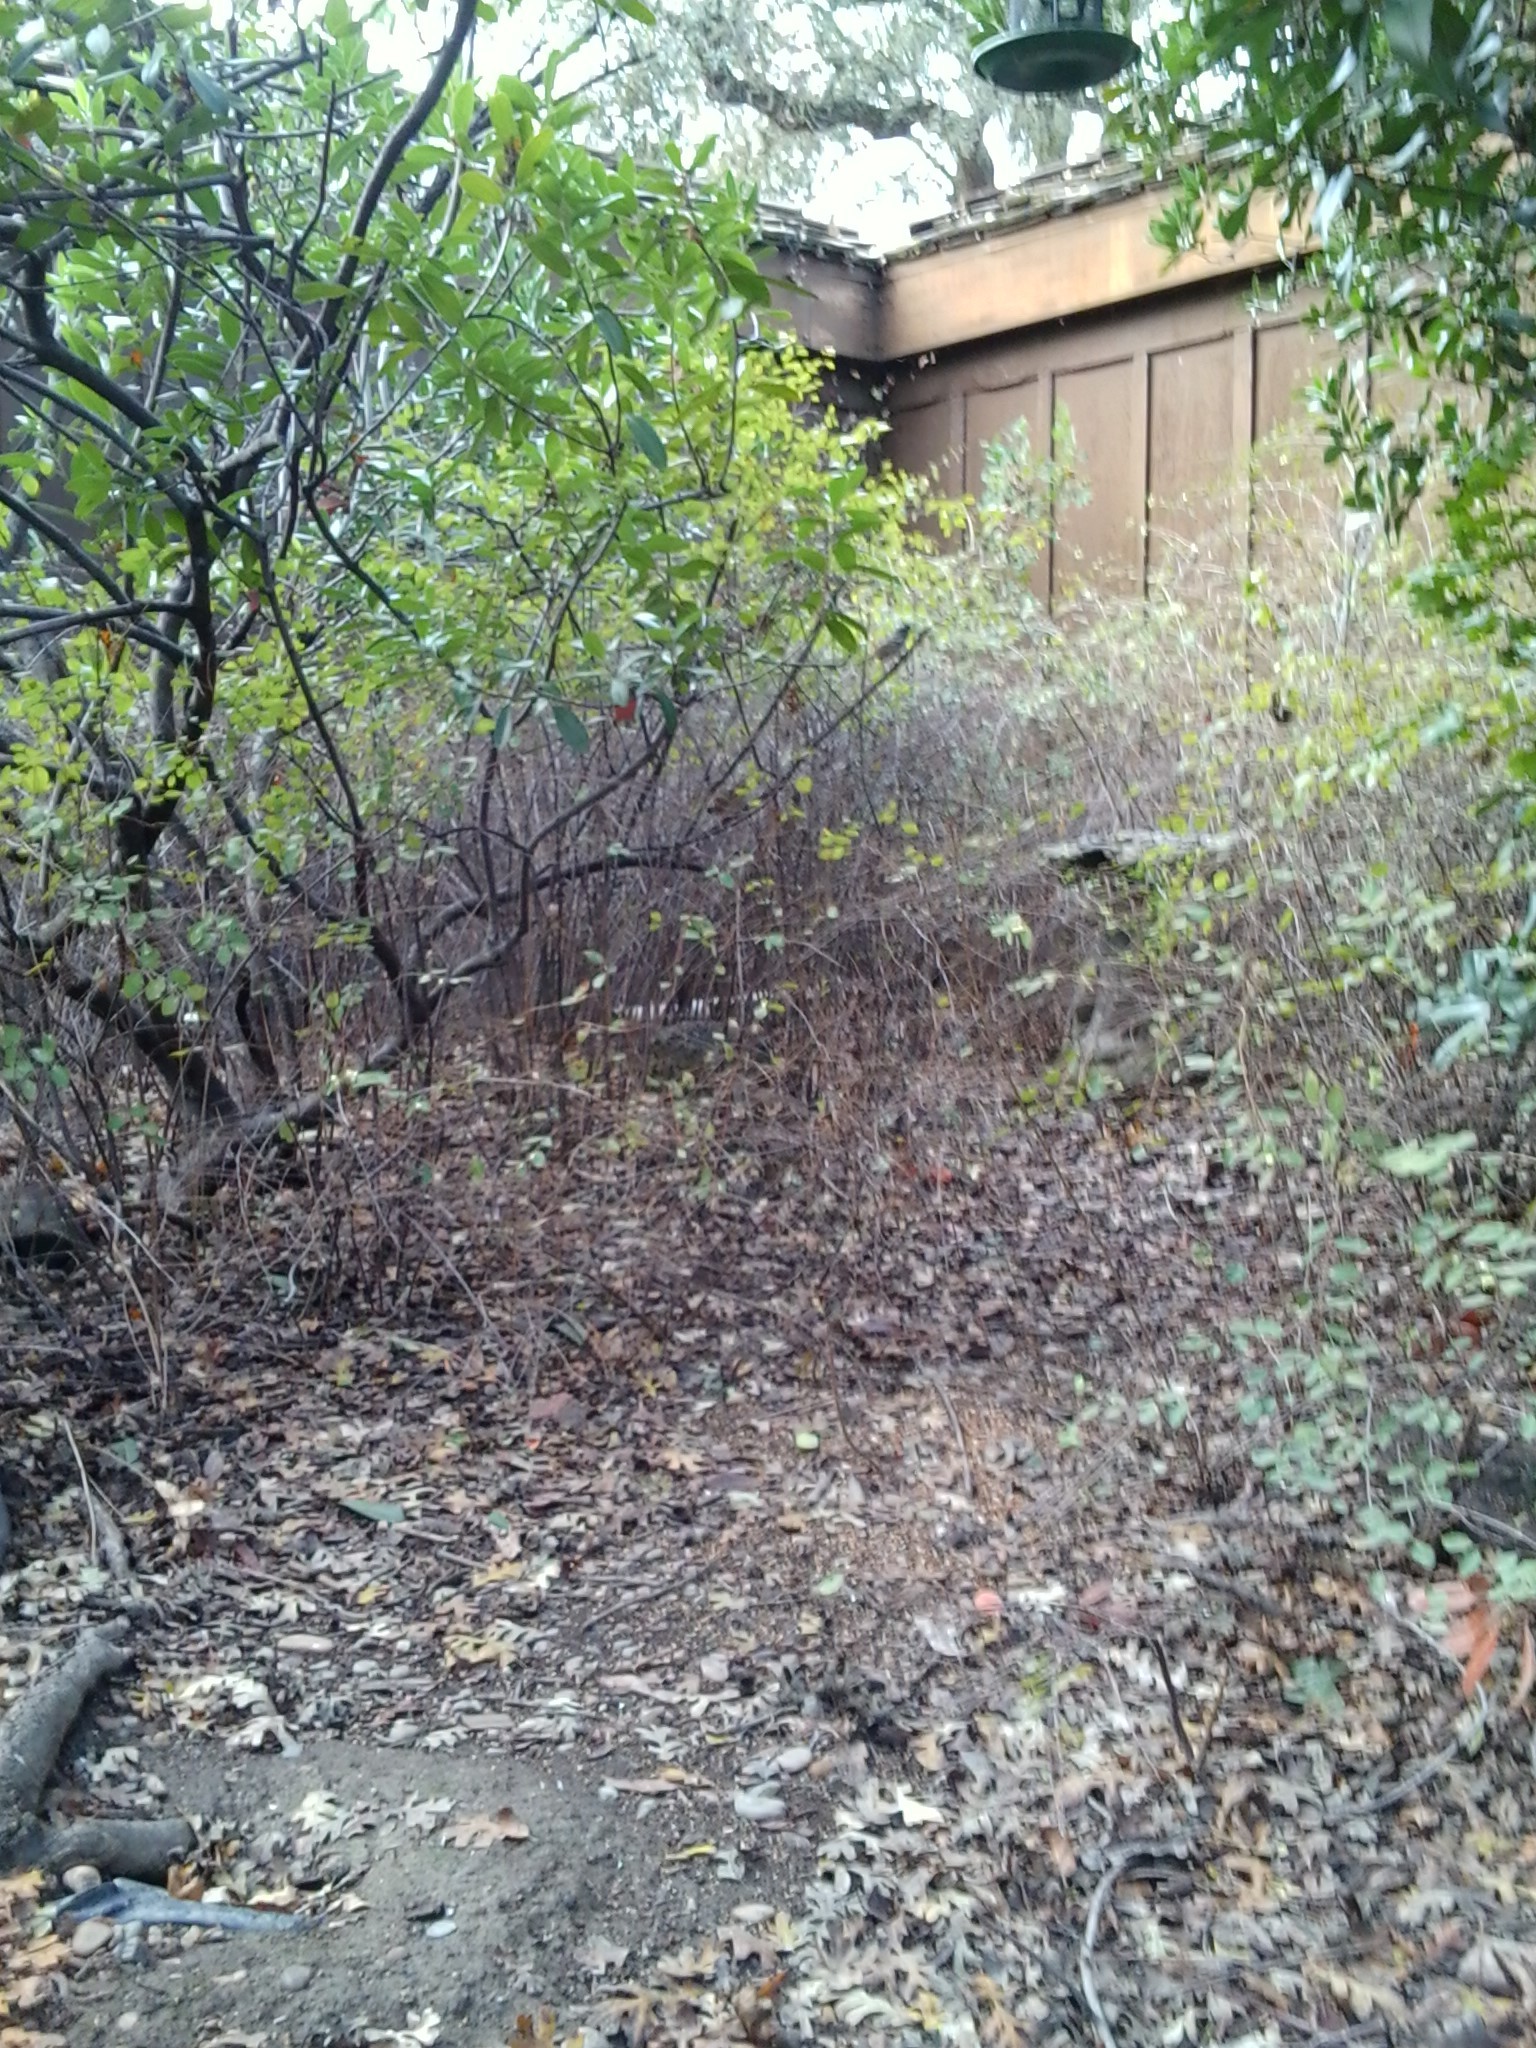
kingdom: Animalia
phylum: Chordata
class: Aves
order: Passeriformes
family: Passerellidae
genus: Zonotrichia
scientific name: Zonotrichia leucophrys
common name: White-crowned sparrow
